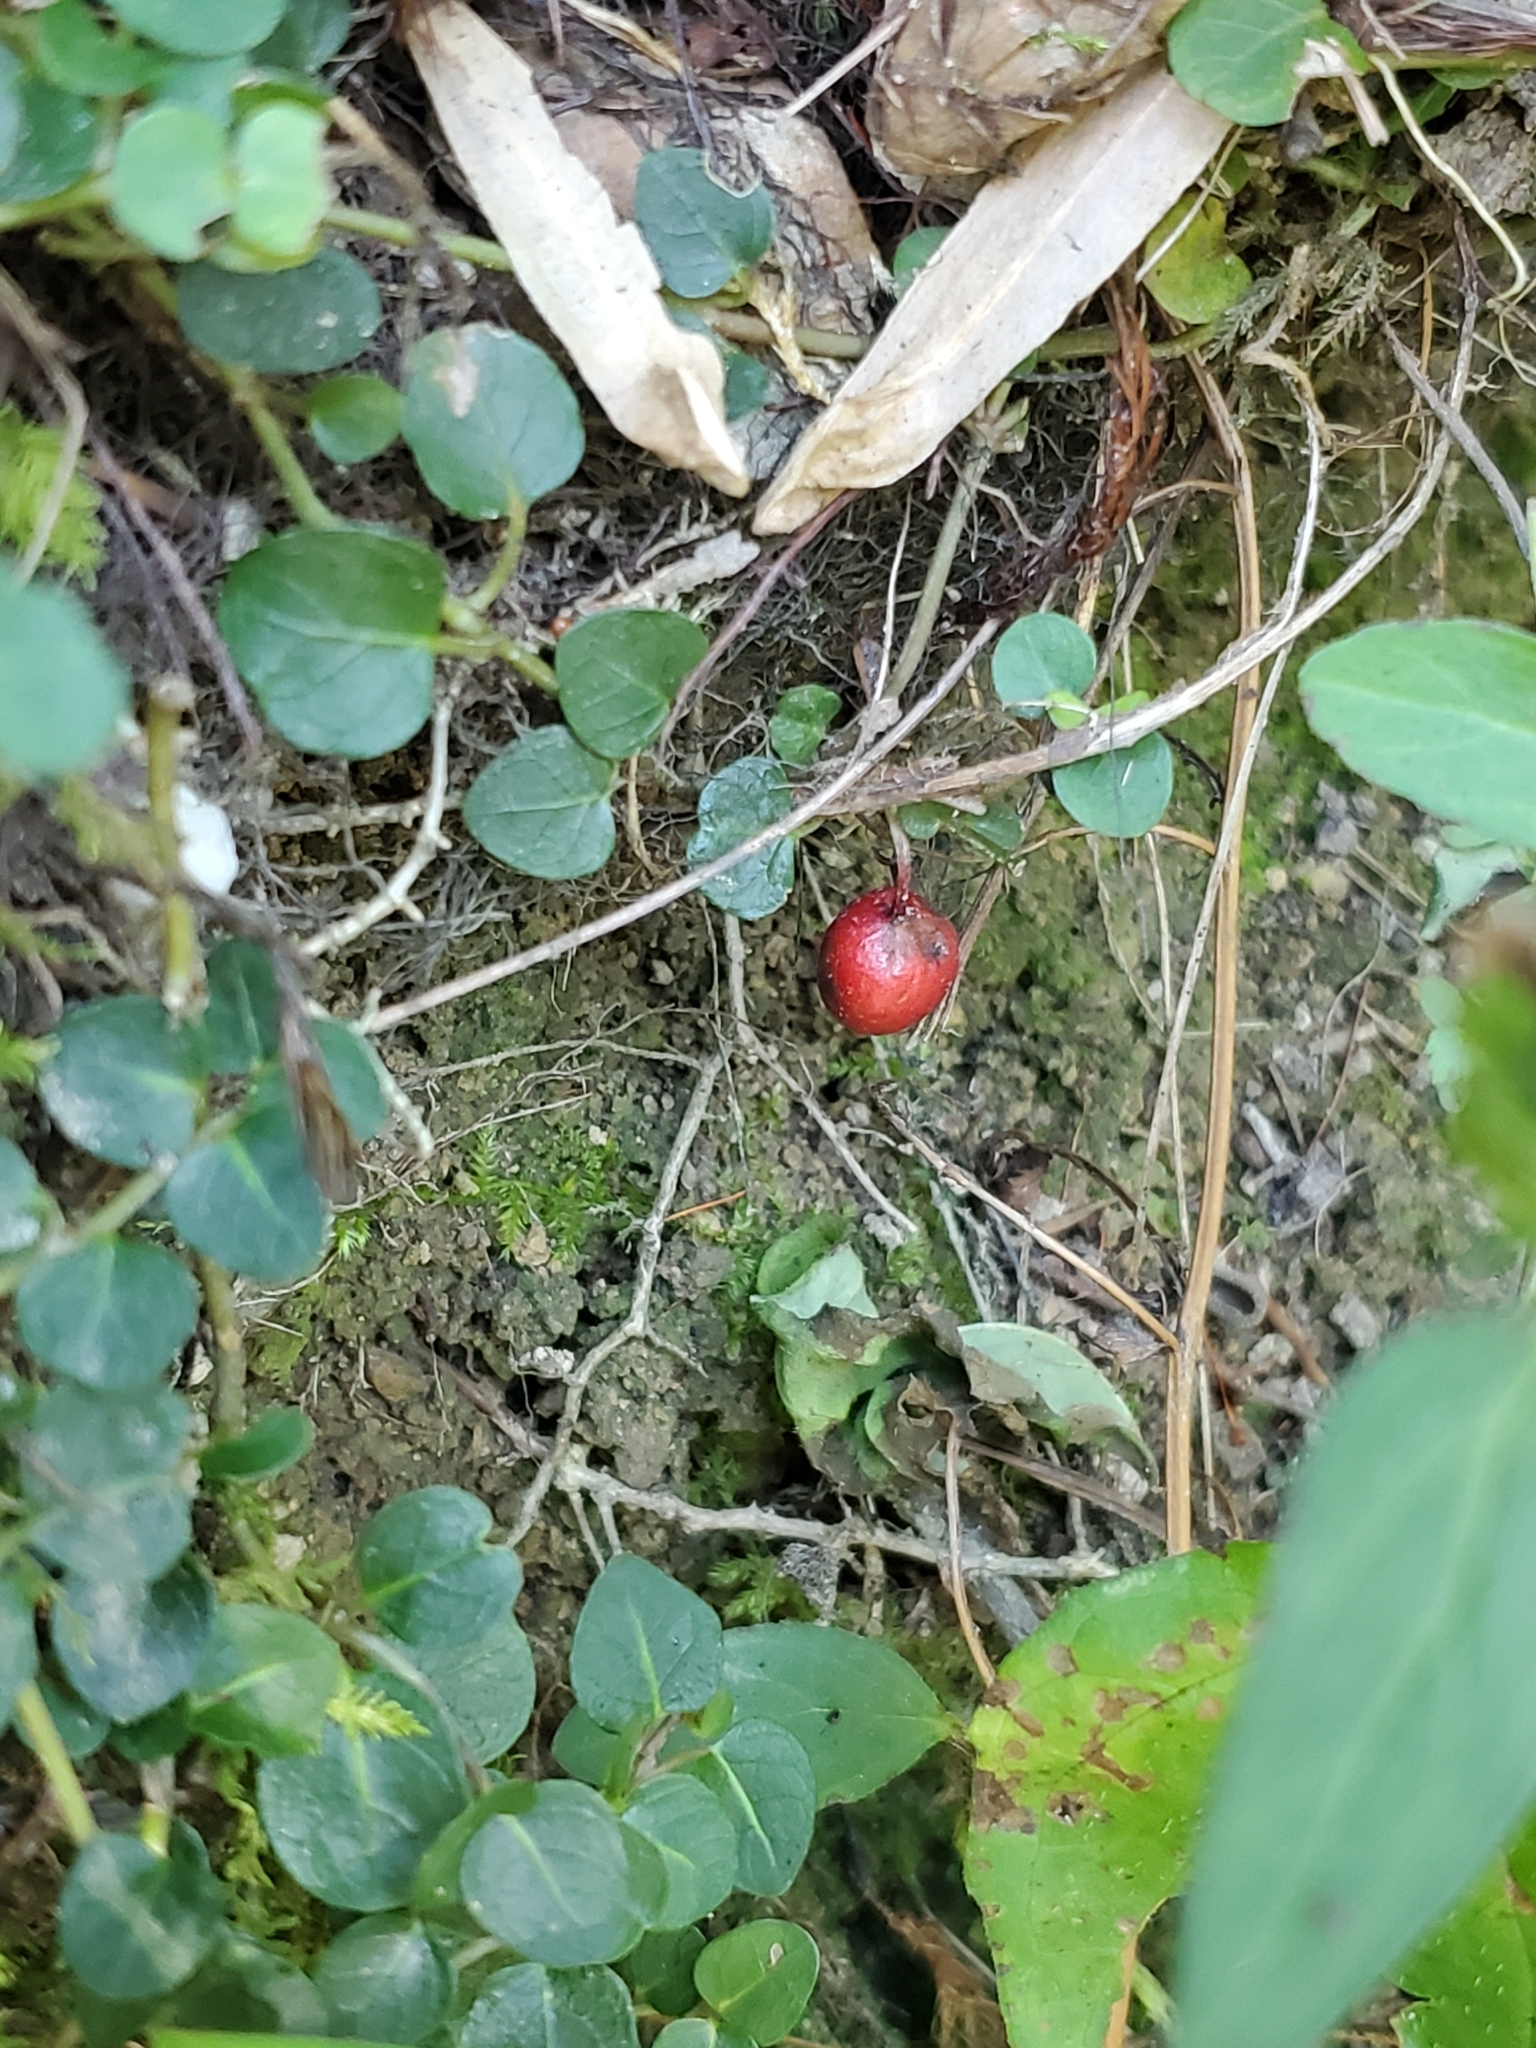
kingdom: Plantae
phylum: Tracheophyta
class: Magnoliopsida
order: Gentianales
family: Rubiaceae
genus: Mitchella
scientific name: Mitchella repens
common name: Partridge-berry
